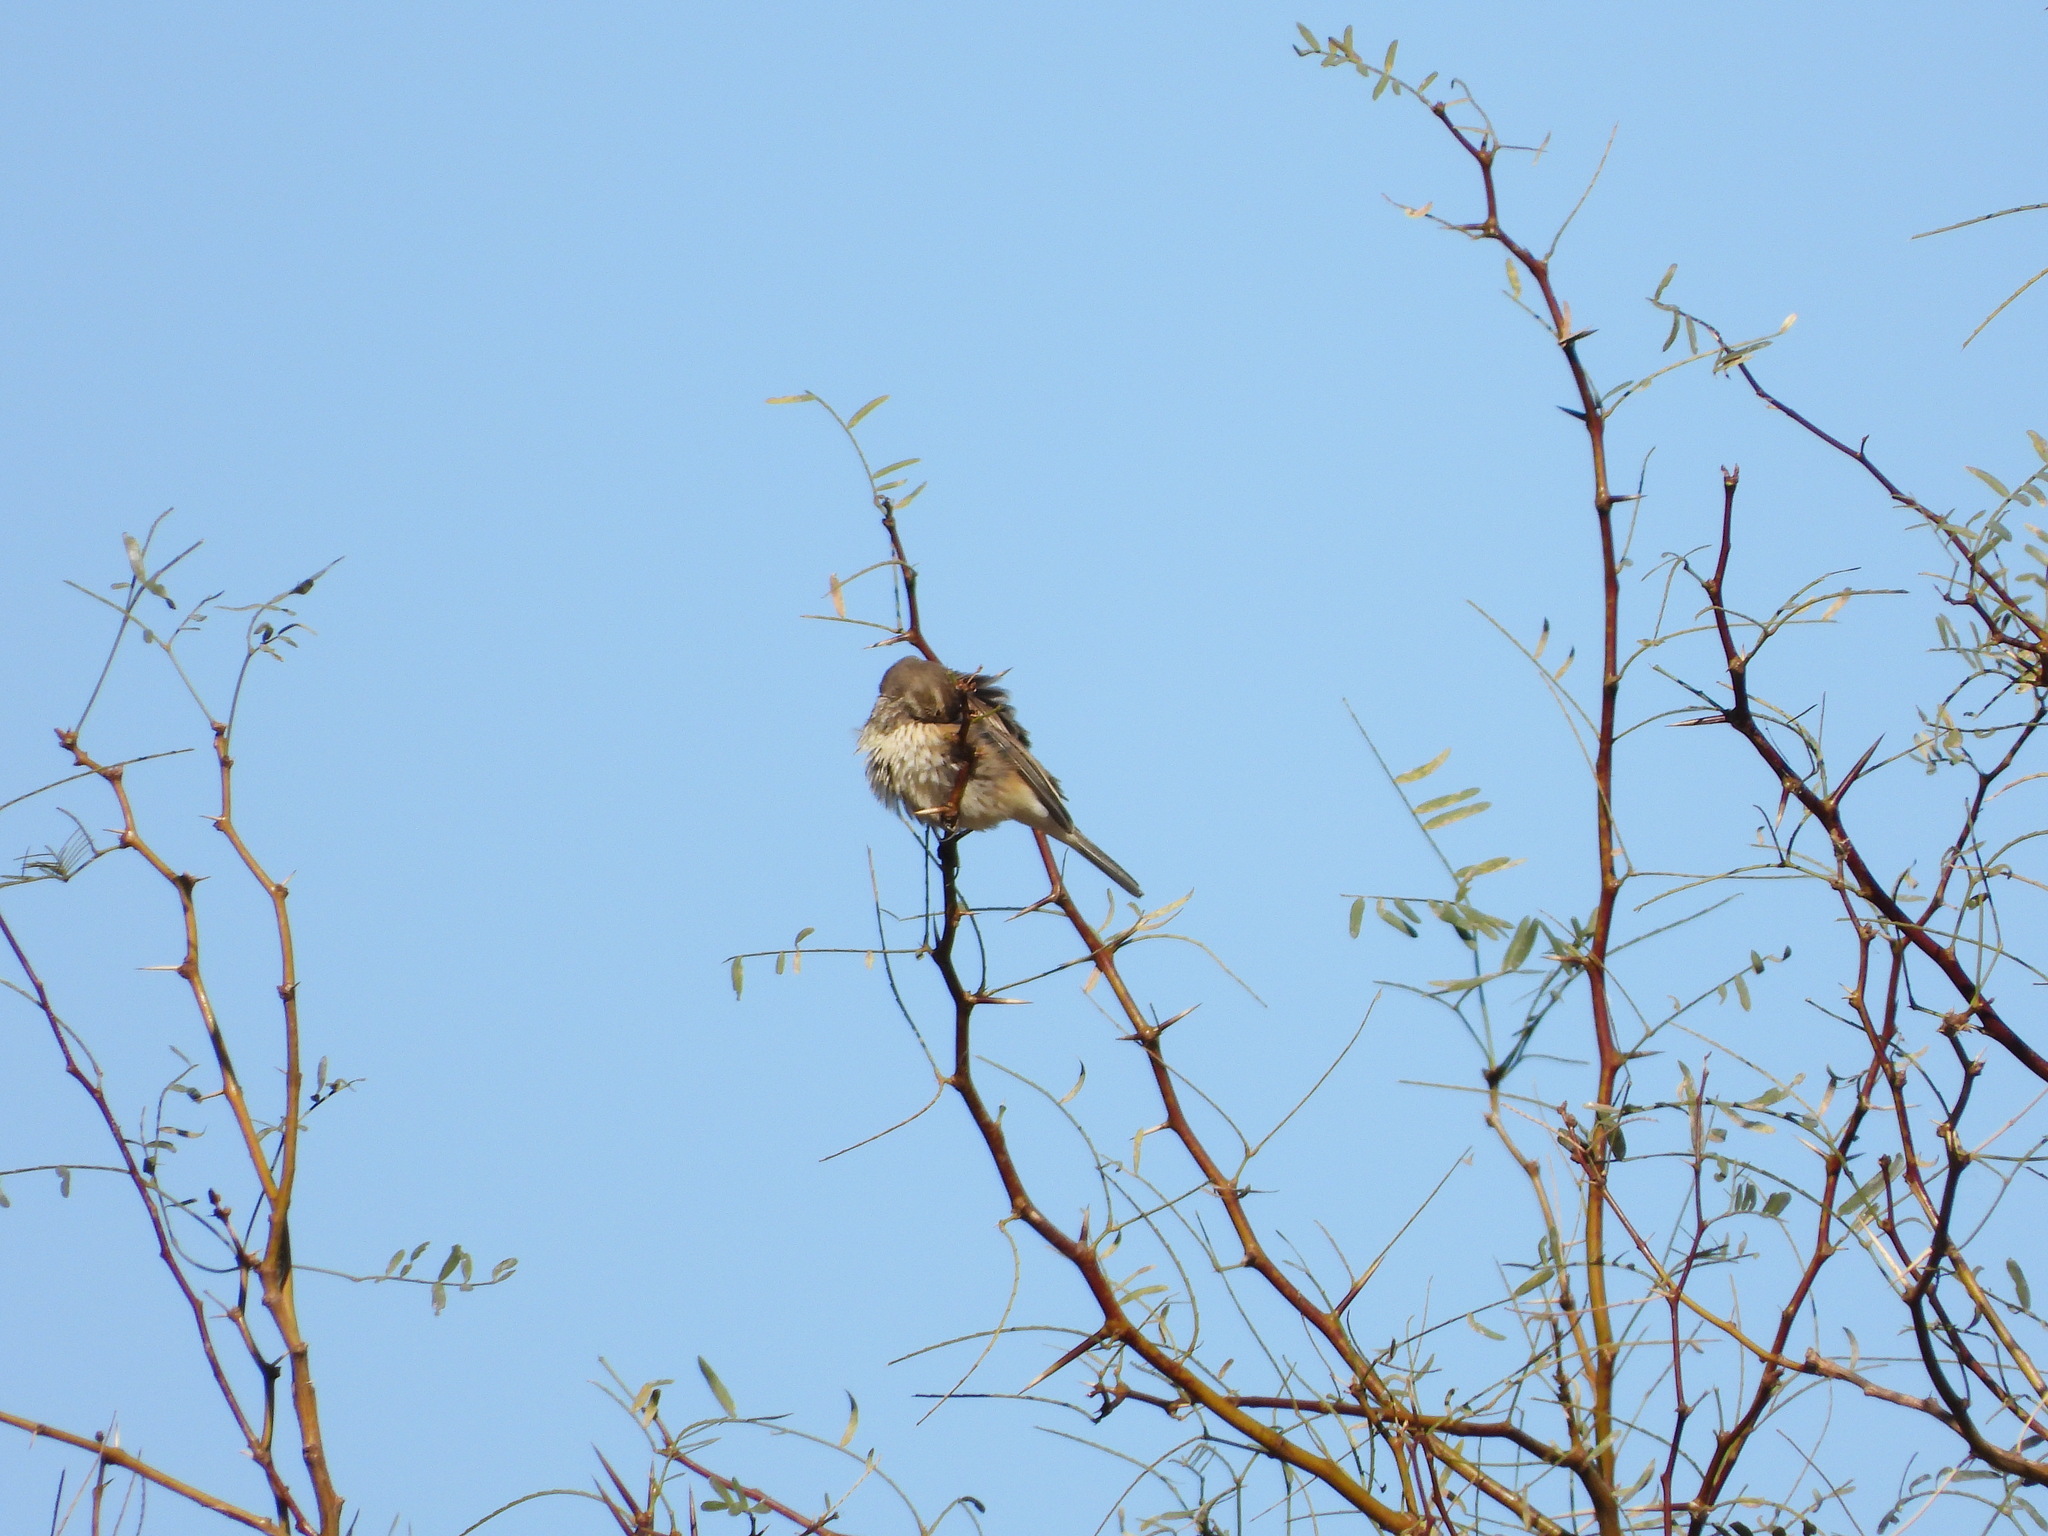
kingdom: Animalia
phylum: Chordata
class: Aves
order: Passeriformes
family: Motacillidae
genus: Anthus
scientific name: Anthus rubescens
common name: Buff-bellied pipit
